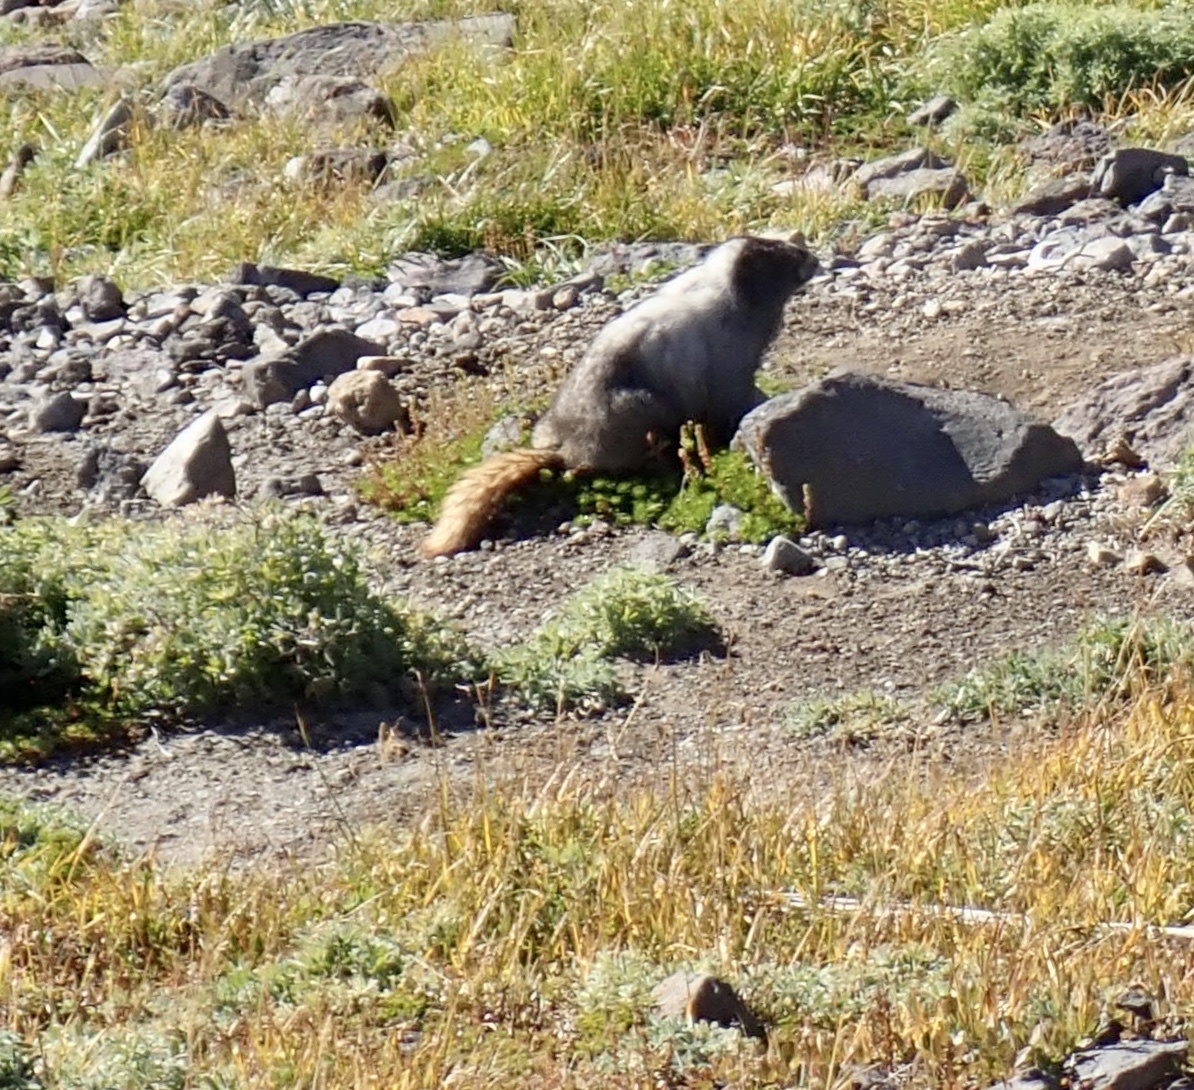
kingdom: Animalia
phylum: Chordata
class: Mammalia
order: Rodentia
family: Sciuridae
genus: Marmota
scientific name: Marmota caligata
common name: Hoary marmot
